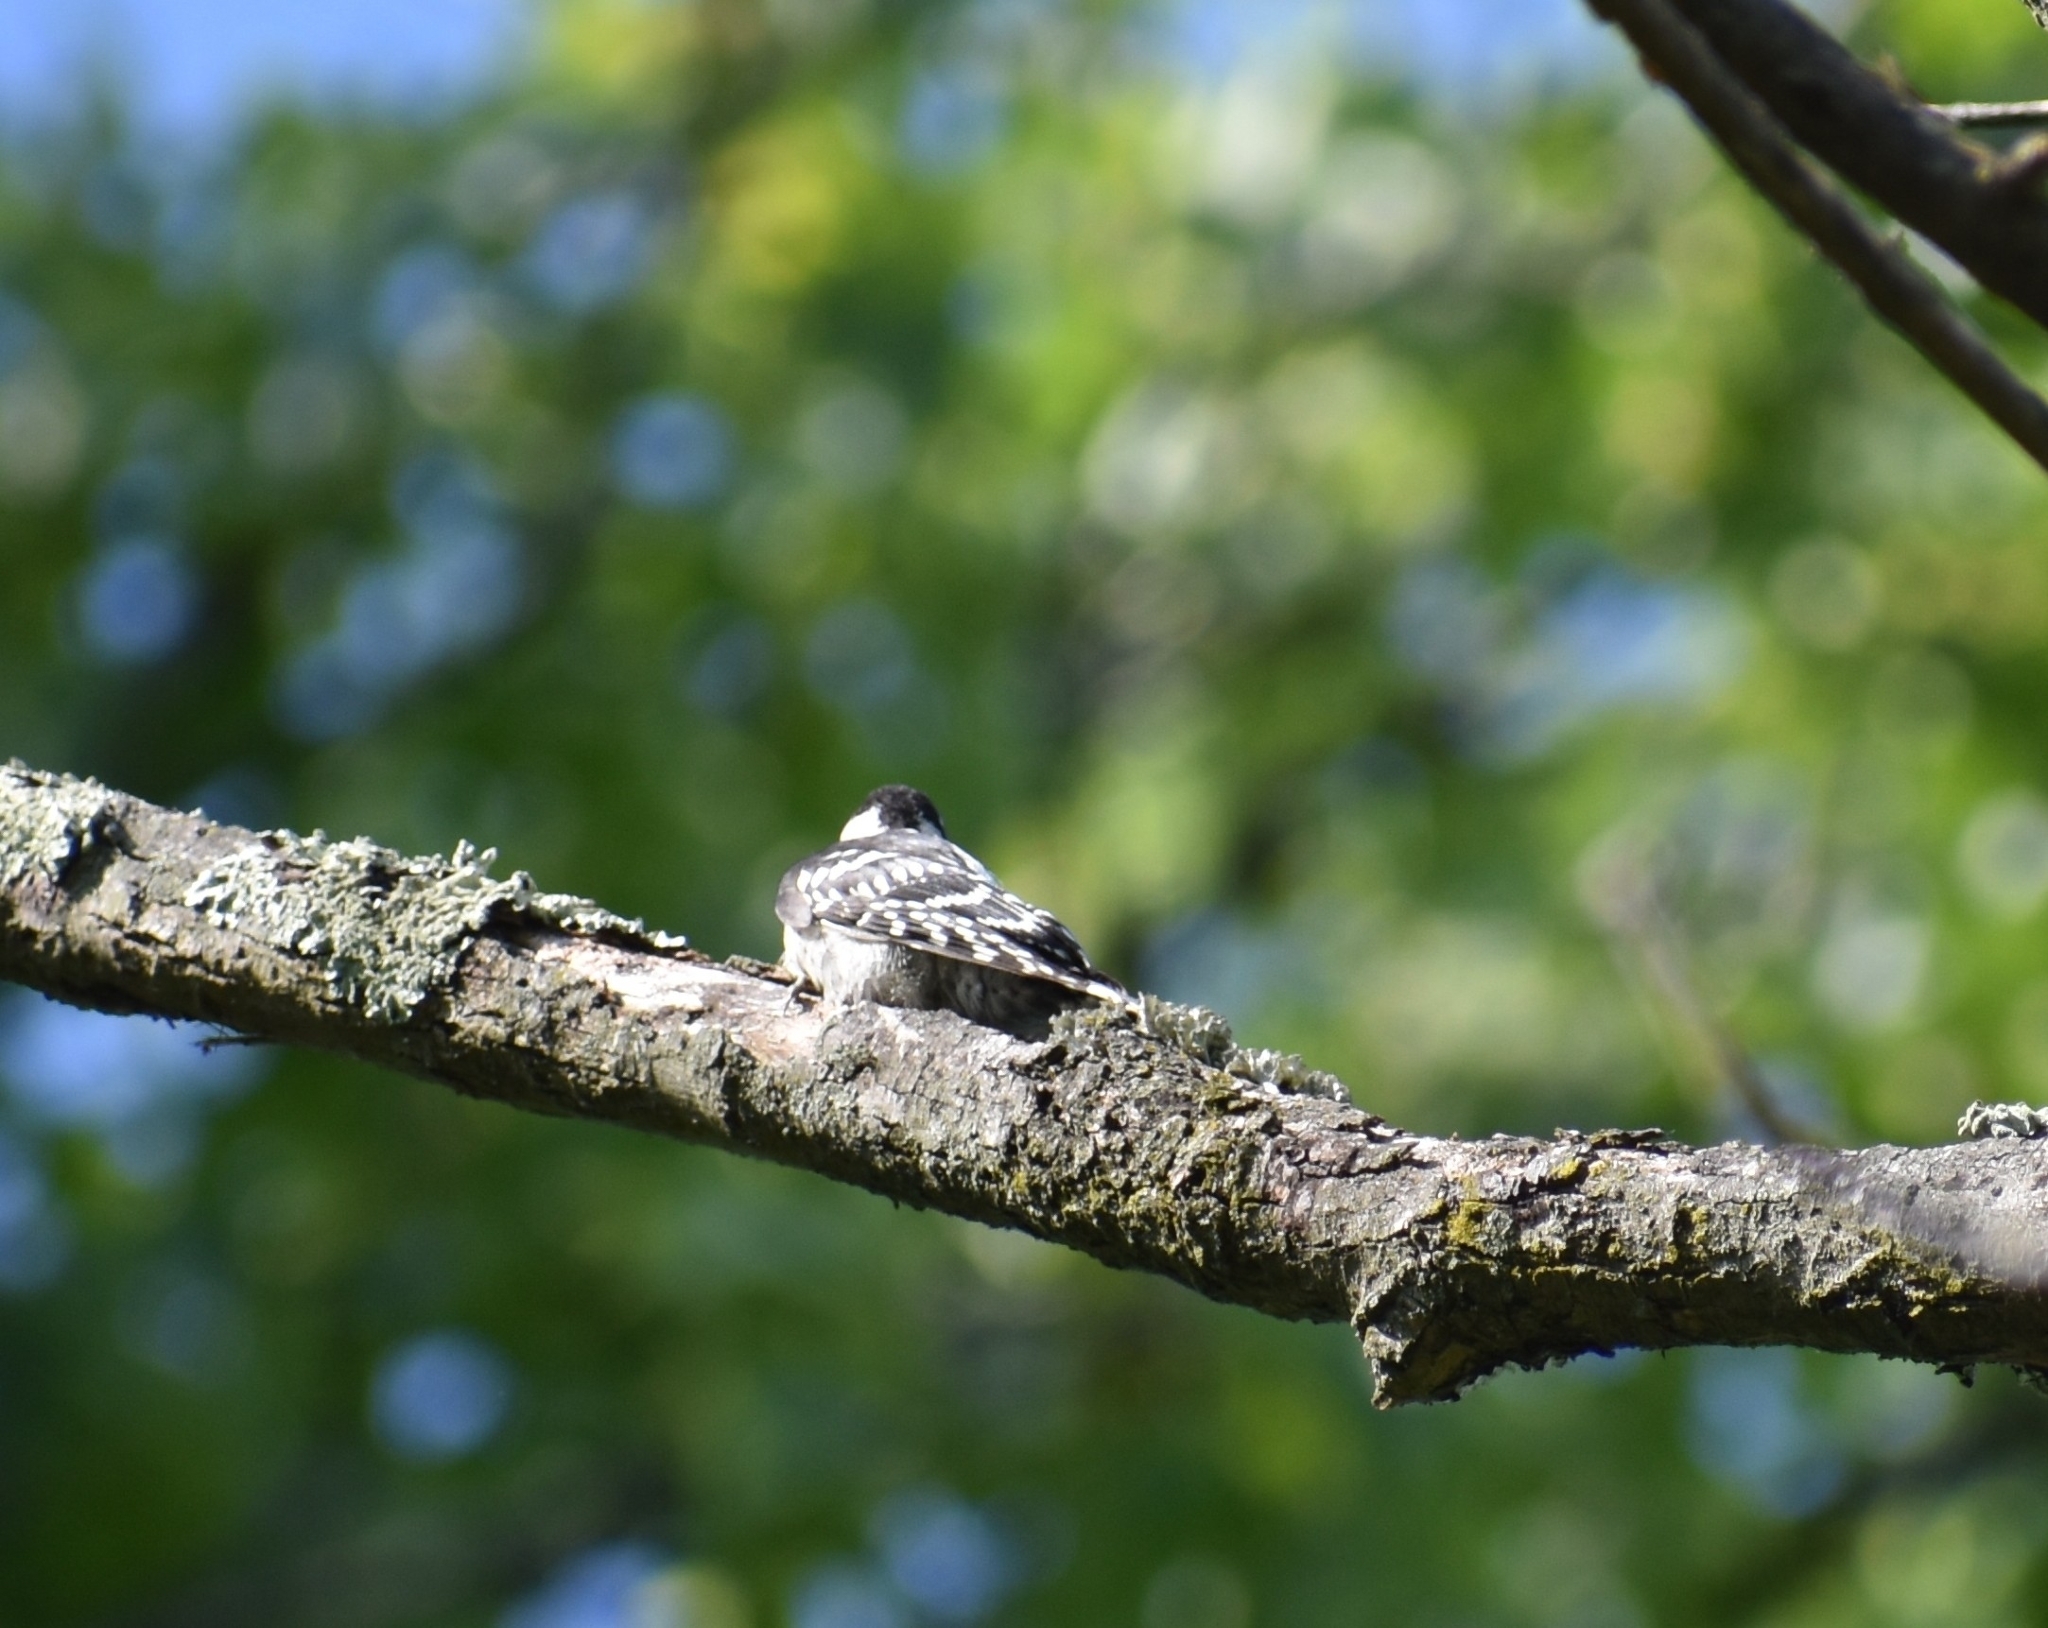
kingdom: Animalia
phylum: Chordata
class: Aves
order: Piciformes
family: Picidae
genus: Dryobates
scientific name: Dryobates pubescens
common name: Downy woodpecker
